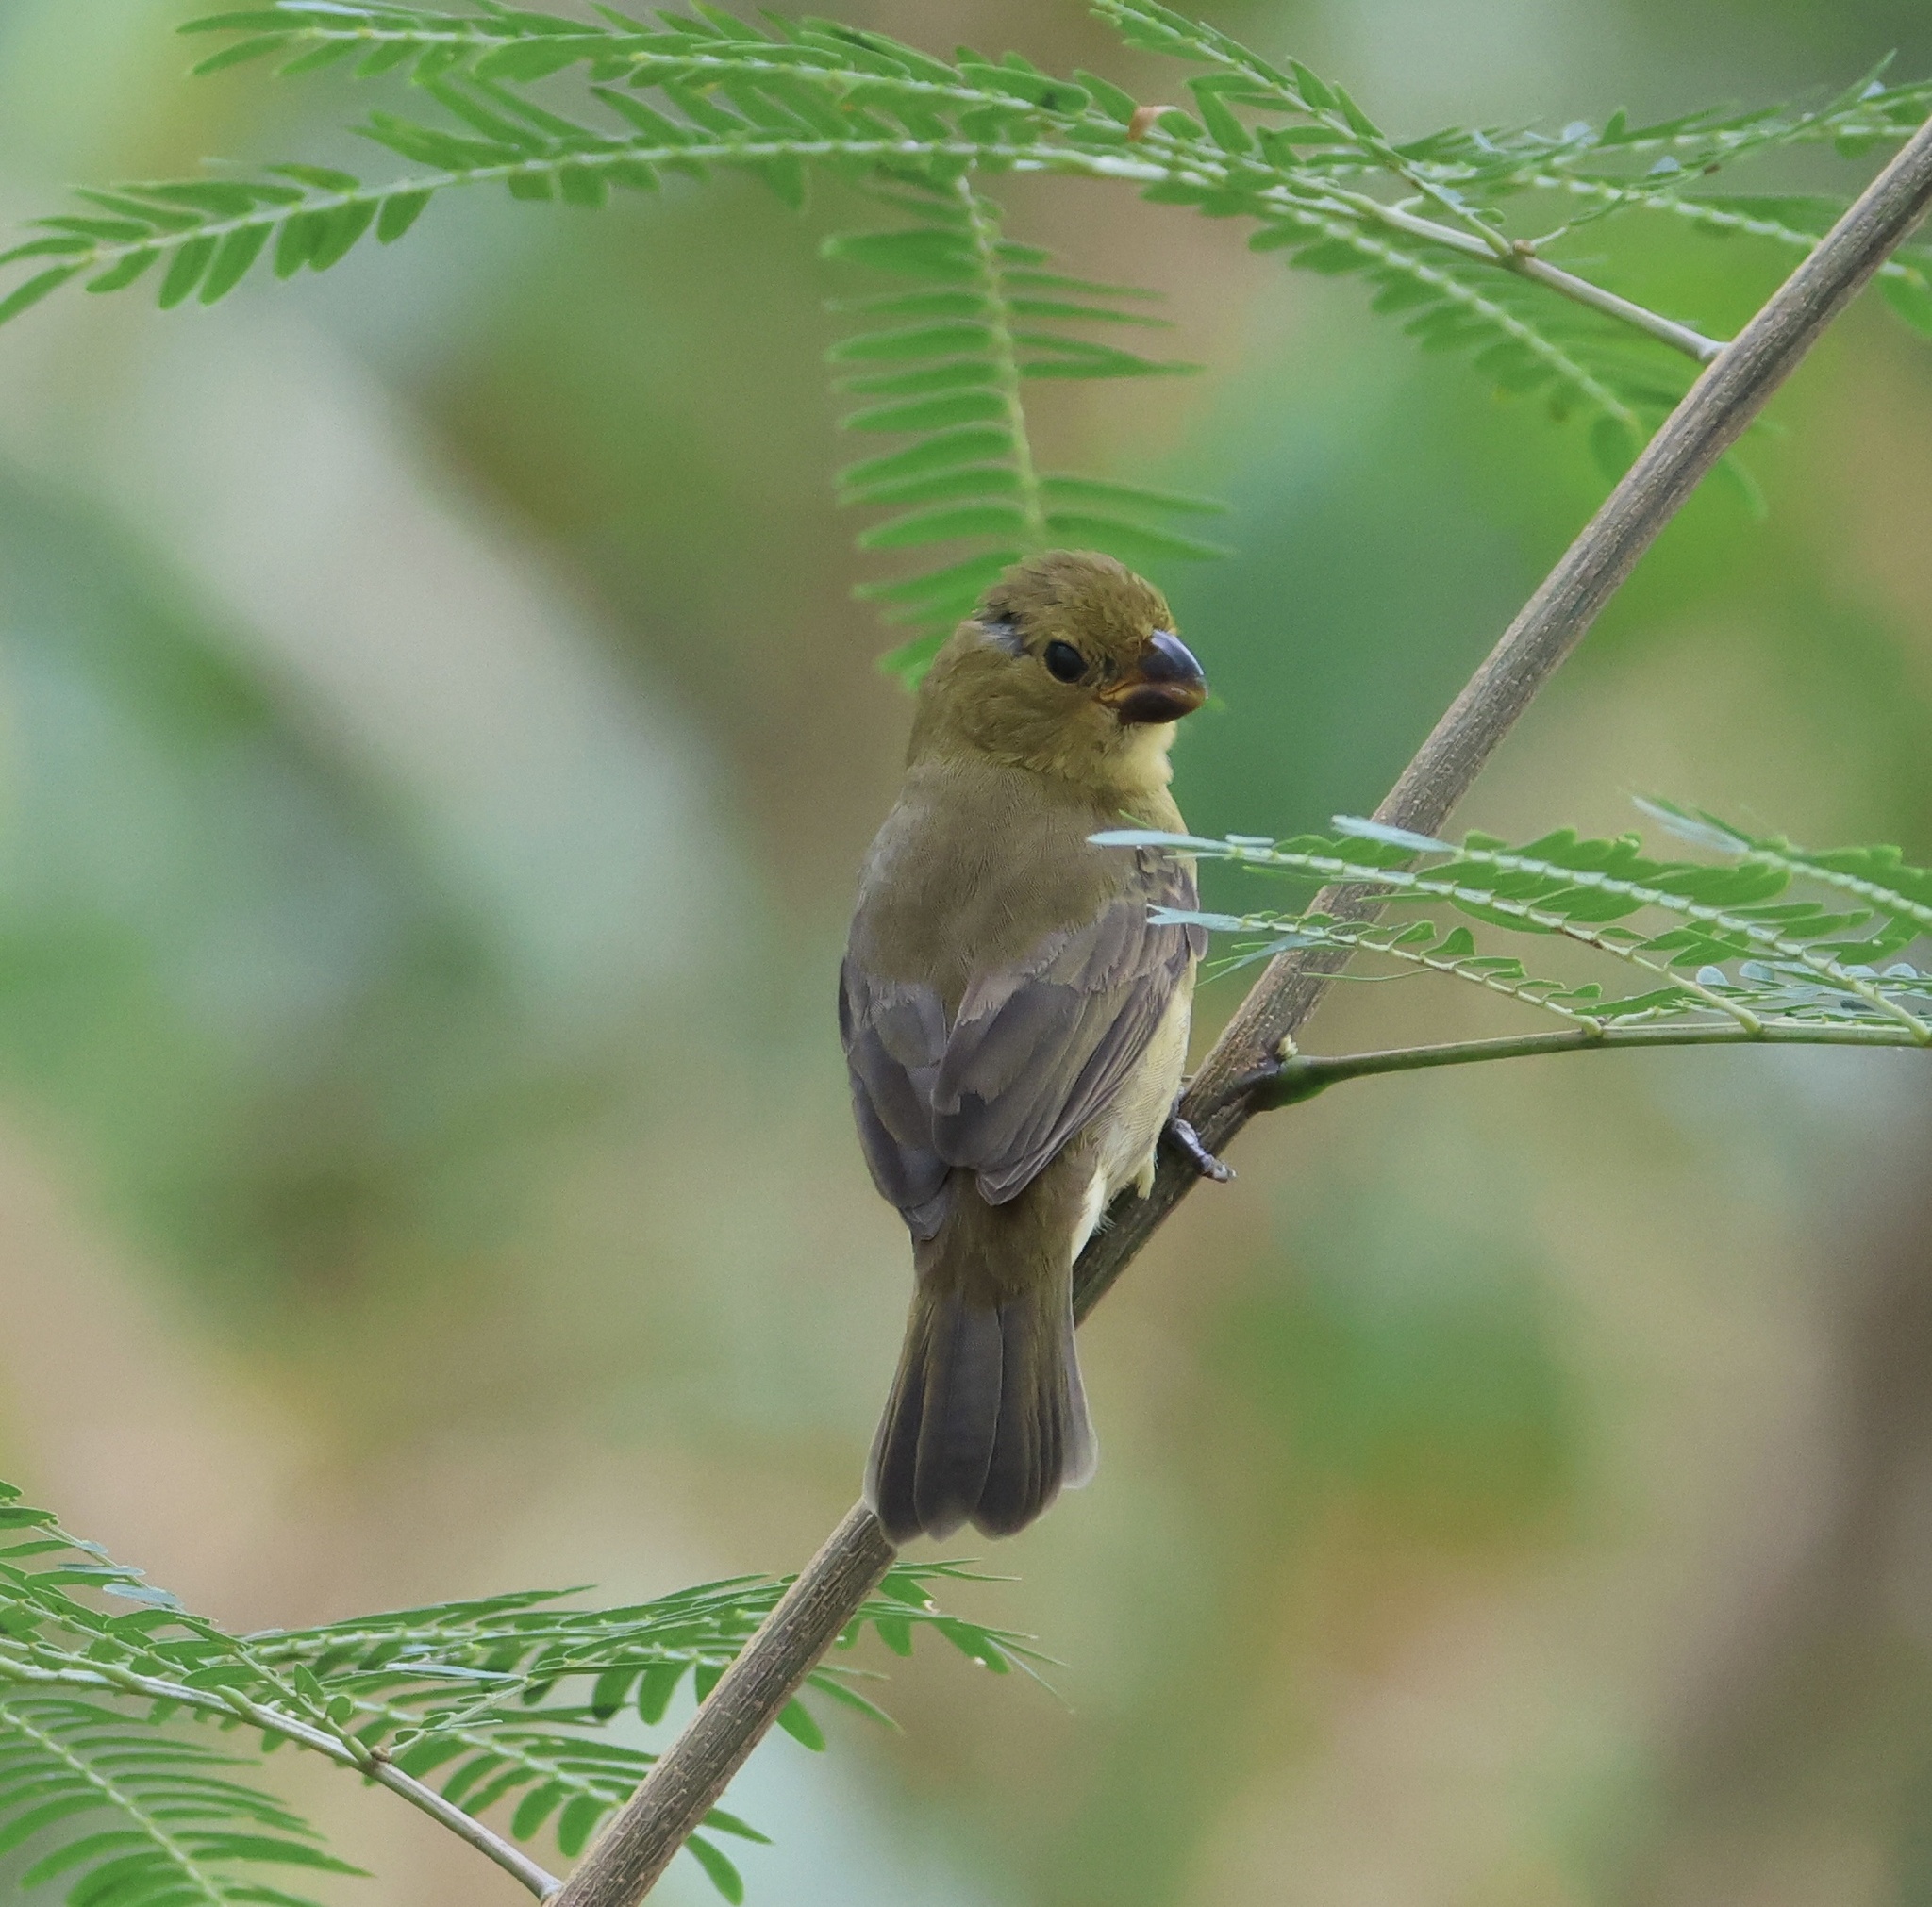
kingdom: Animalia
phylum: Chordata
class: Aves
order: Passeriformes
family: Thraupidae
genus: Sporophila
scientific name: Sporophila corvina
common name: Variable seedeater
